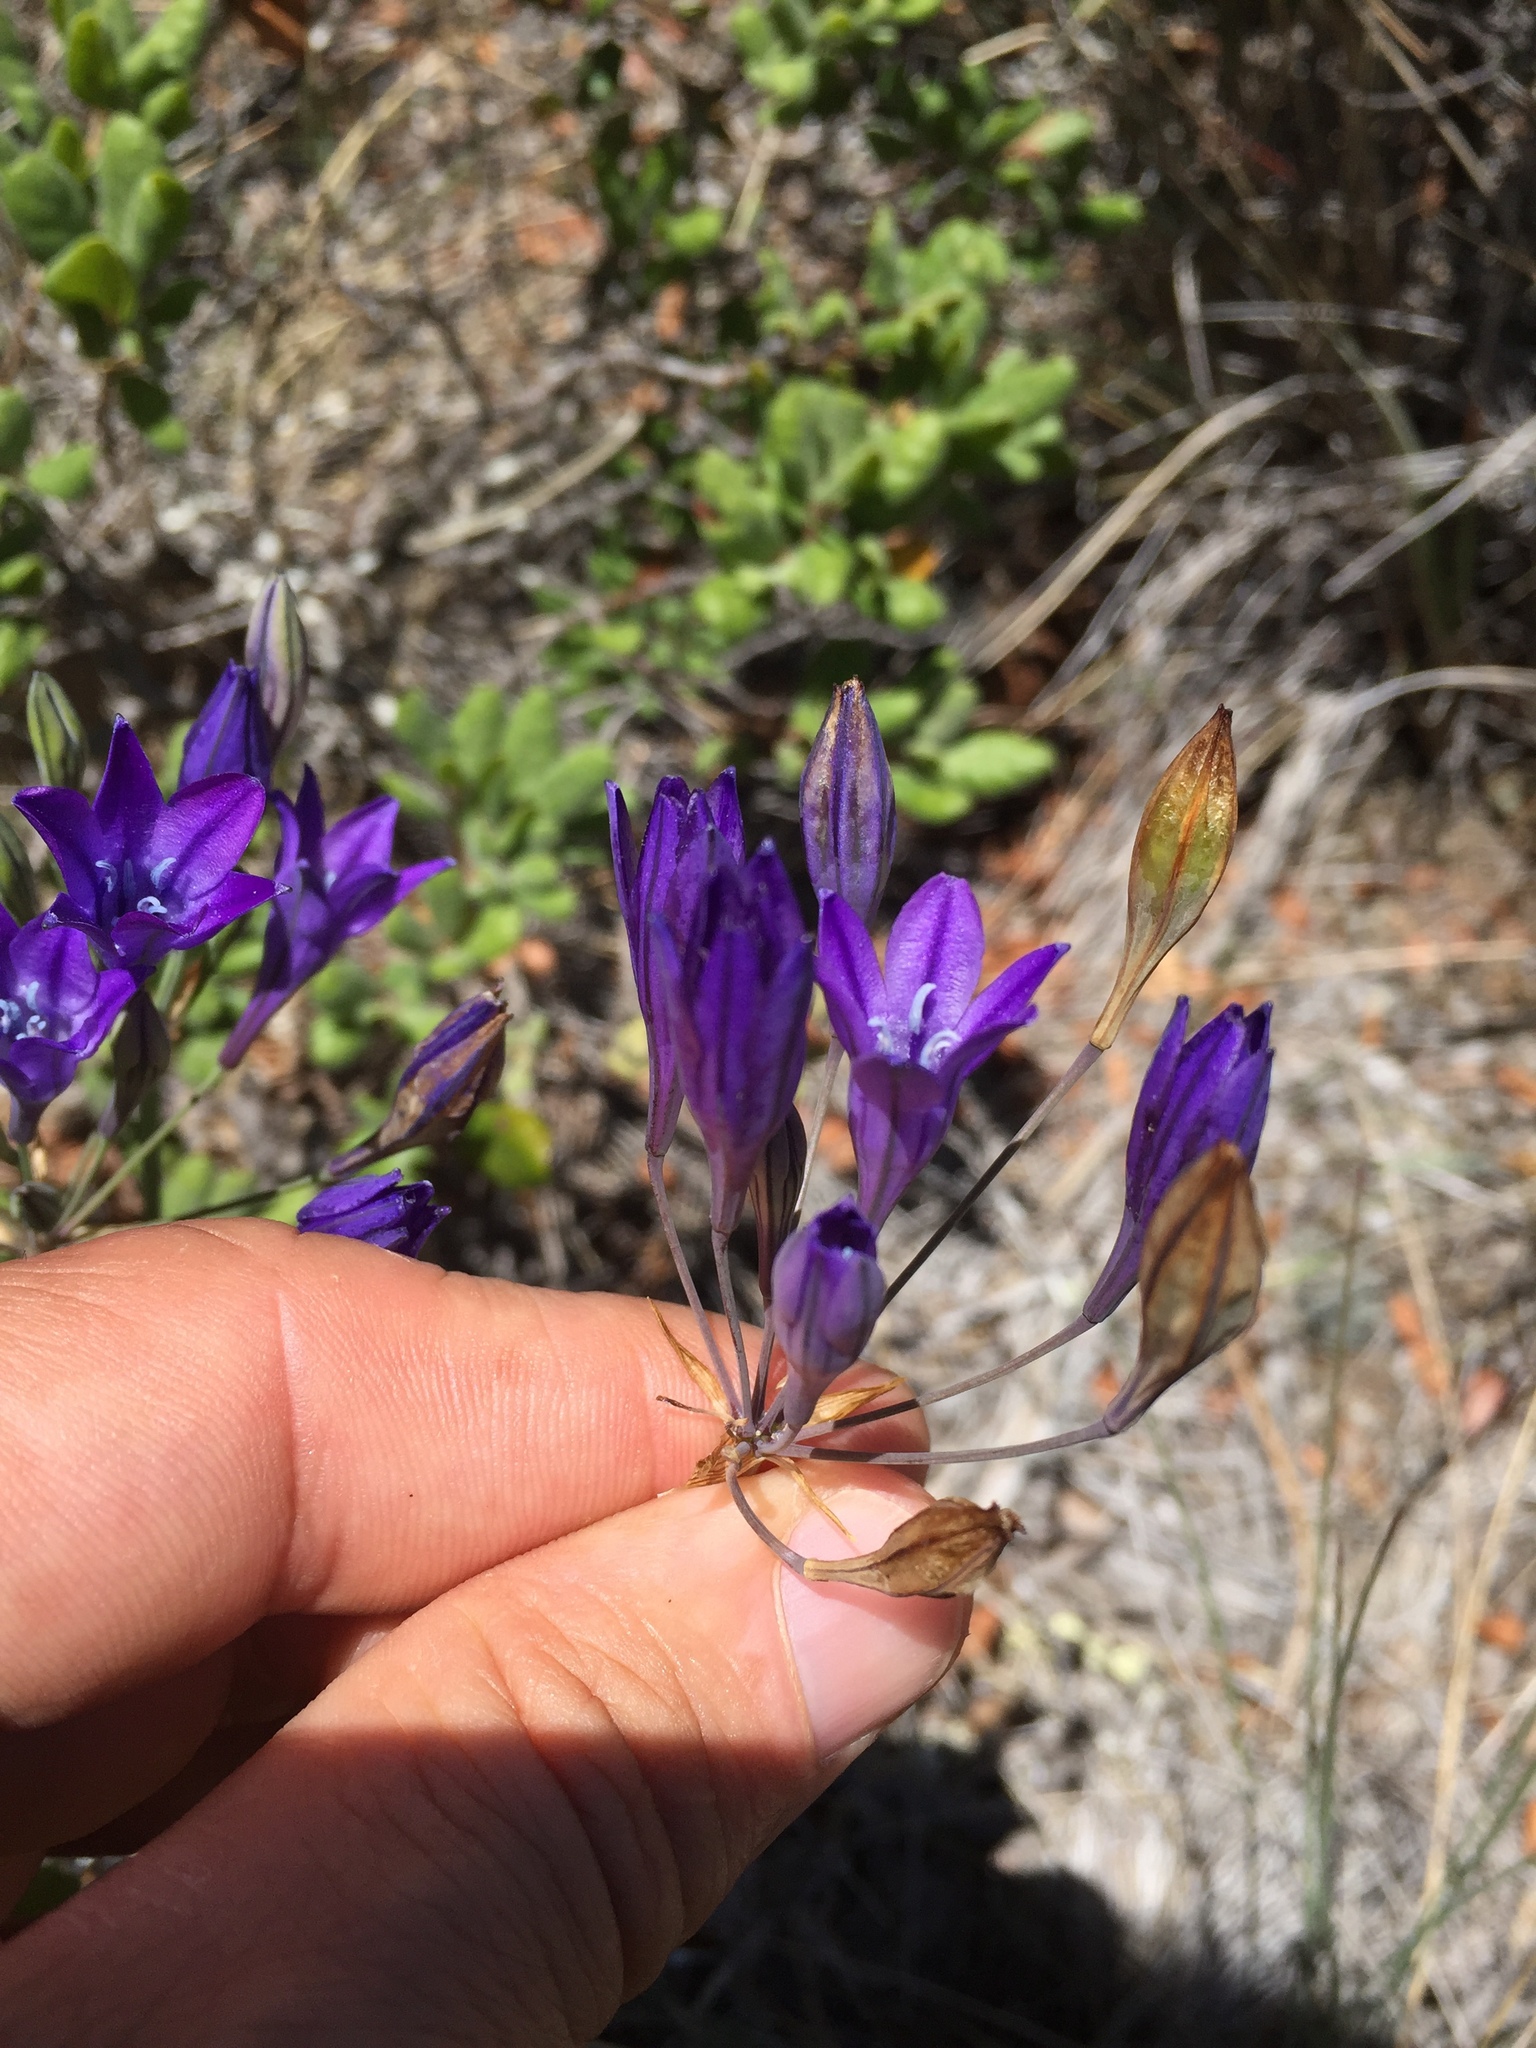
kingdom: Plantae
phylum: Tracheophyta
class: Liliopsida
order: Asparagales
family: Asparagaceae
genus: Triteleia
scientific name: Triteleia laxa
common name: Triplet-lily
